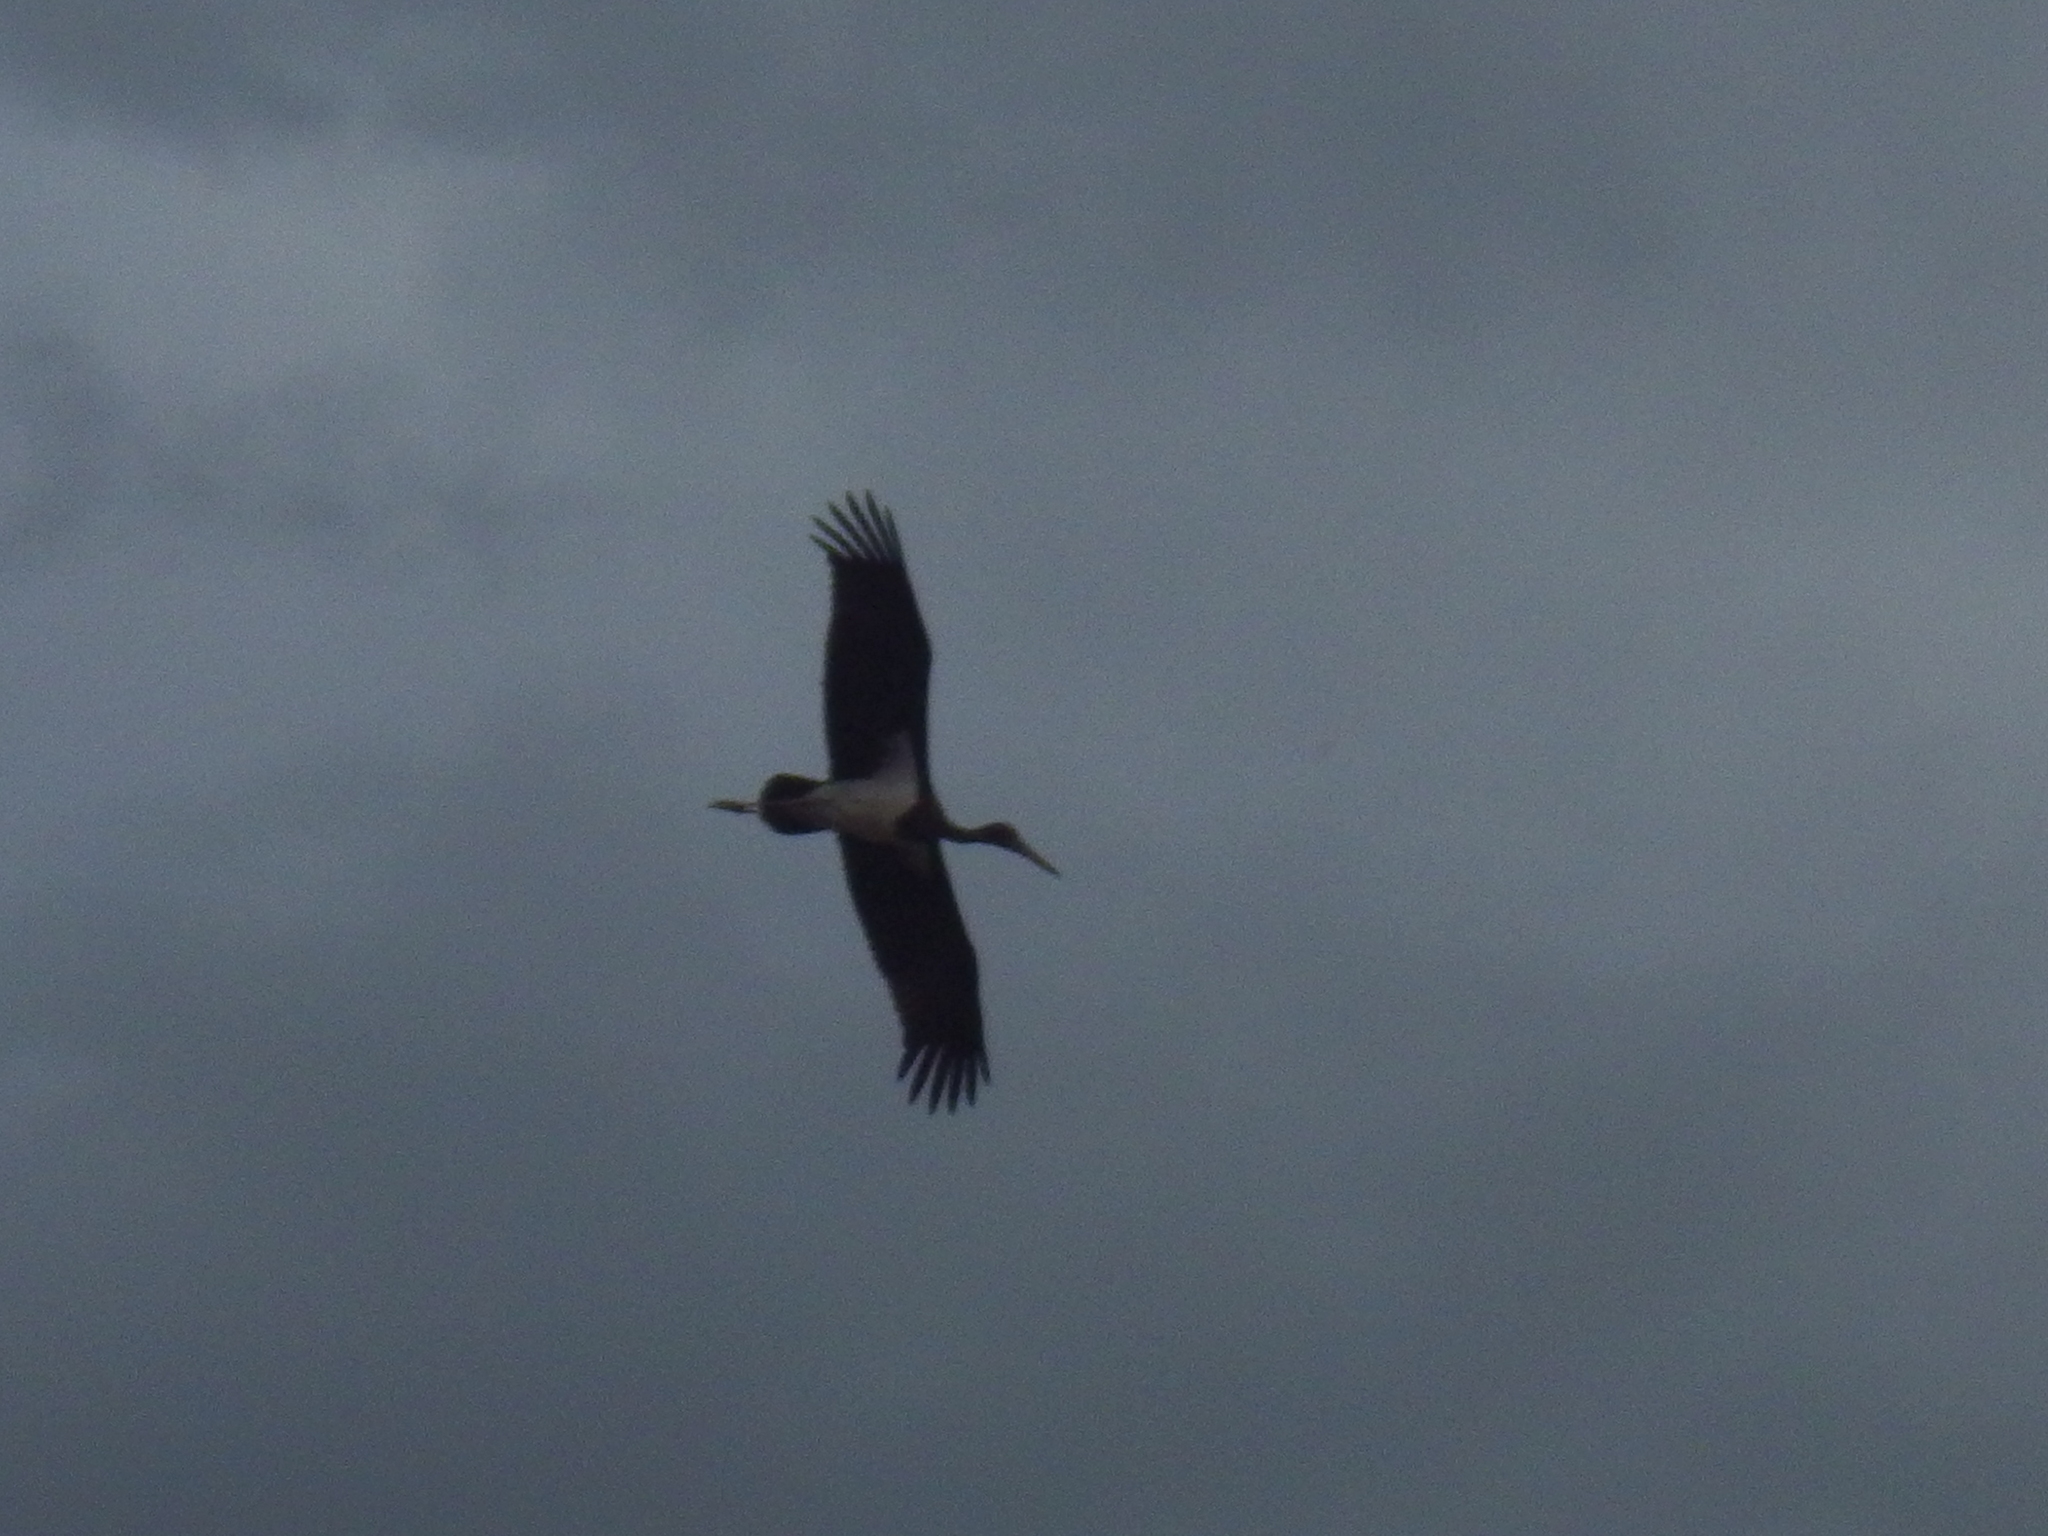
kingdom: Animalia
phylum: Chordata
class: Aves
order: Ciconiiformes
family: Ciconiidae
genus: Ciconia
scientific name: Ciconia nigra
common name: Black stork
